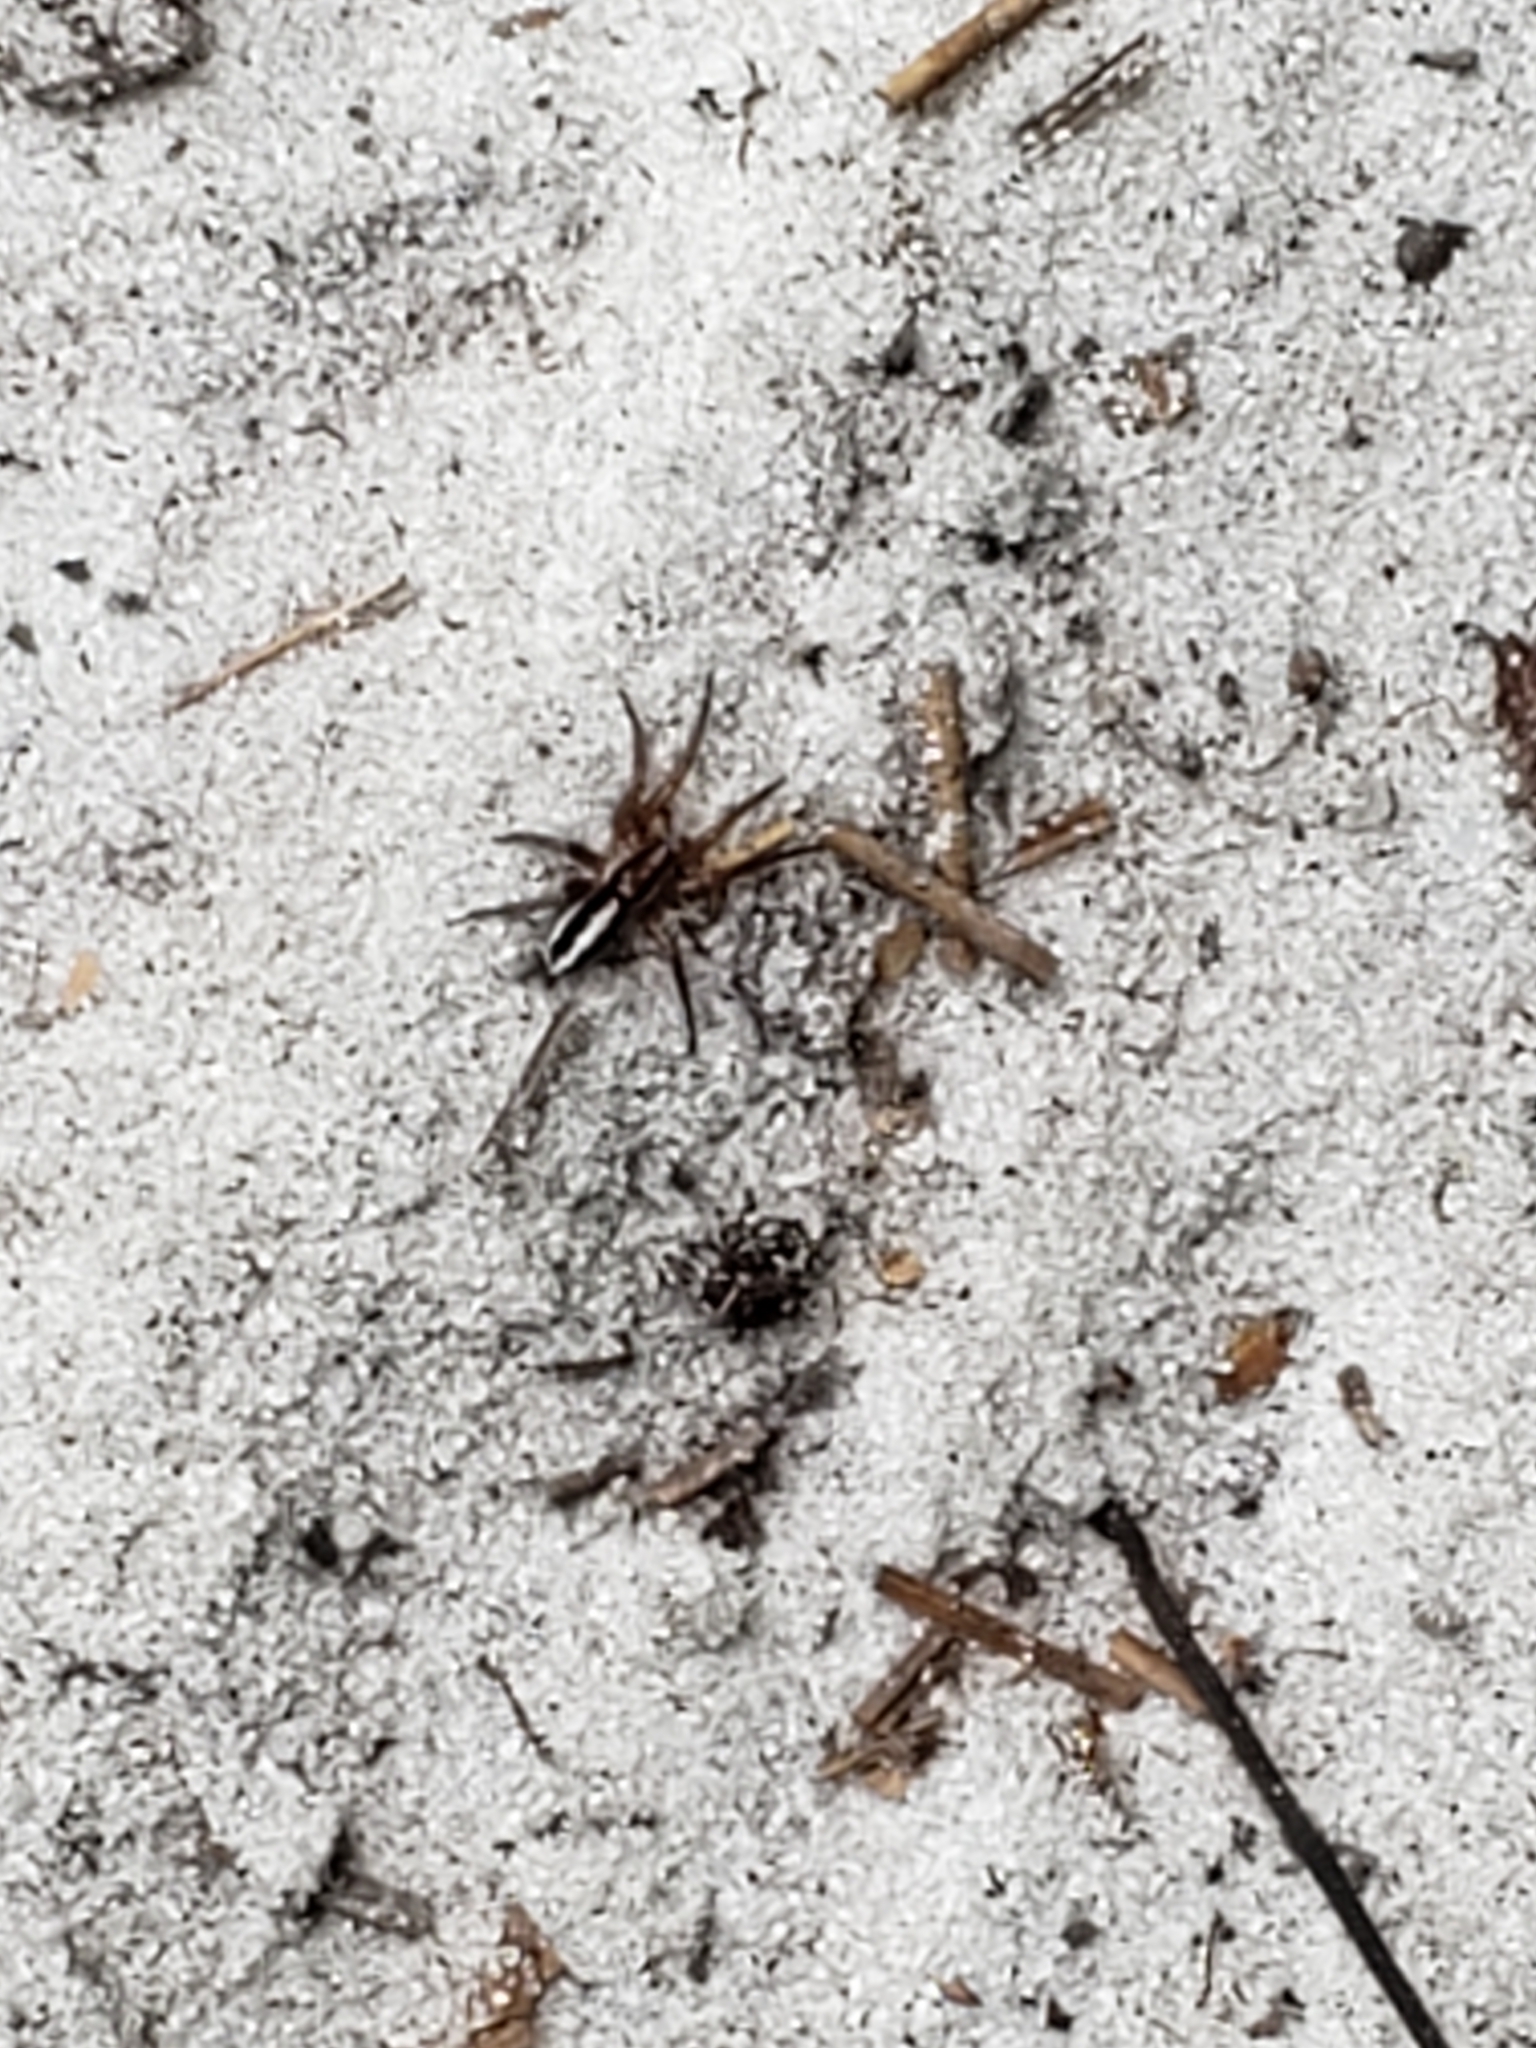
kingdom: Animalia
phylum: Arthropoda
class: Arachnida
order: Araneae
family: Gnaphosidae
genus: Cesonia
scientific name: Cesonia bilineata
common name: Two-lined stealthy ground spider
